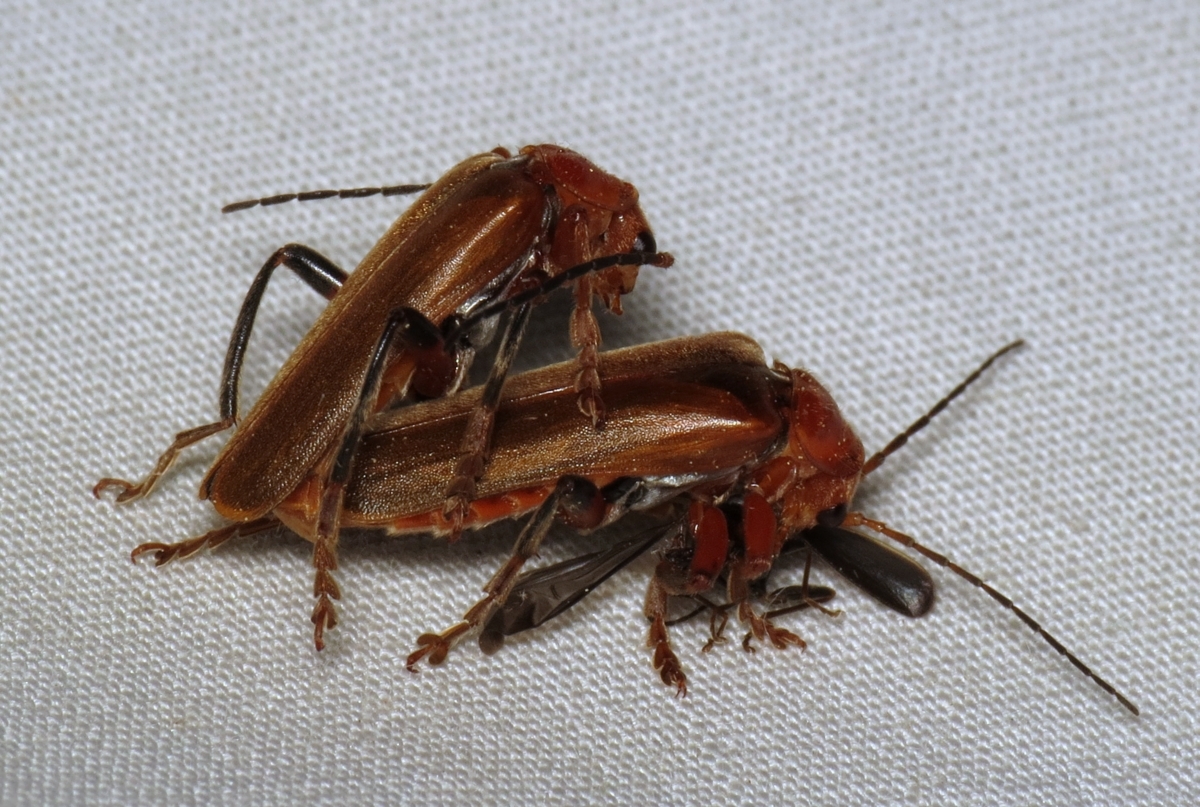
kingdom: Animalia
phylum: Arthropoda
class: Insecta
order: Coleoptera
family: Cantharidae
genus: Cantharis
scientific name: Cantharis livida
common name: Livid soldier beetle
